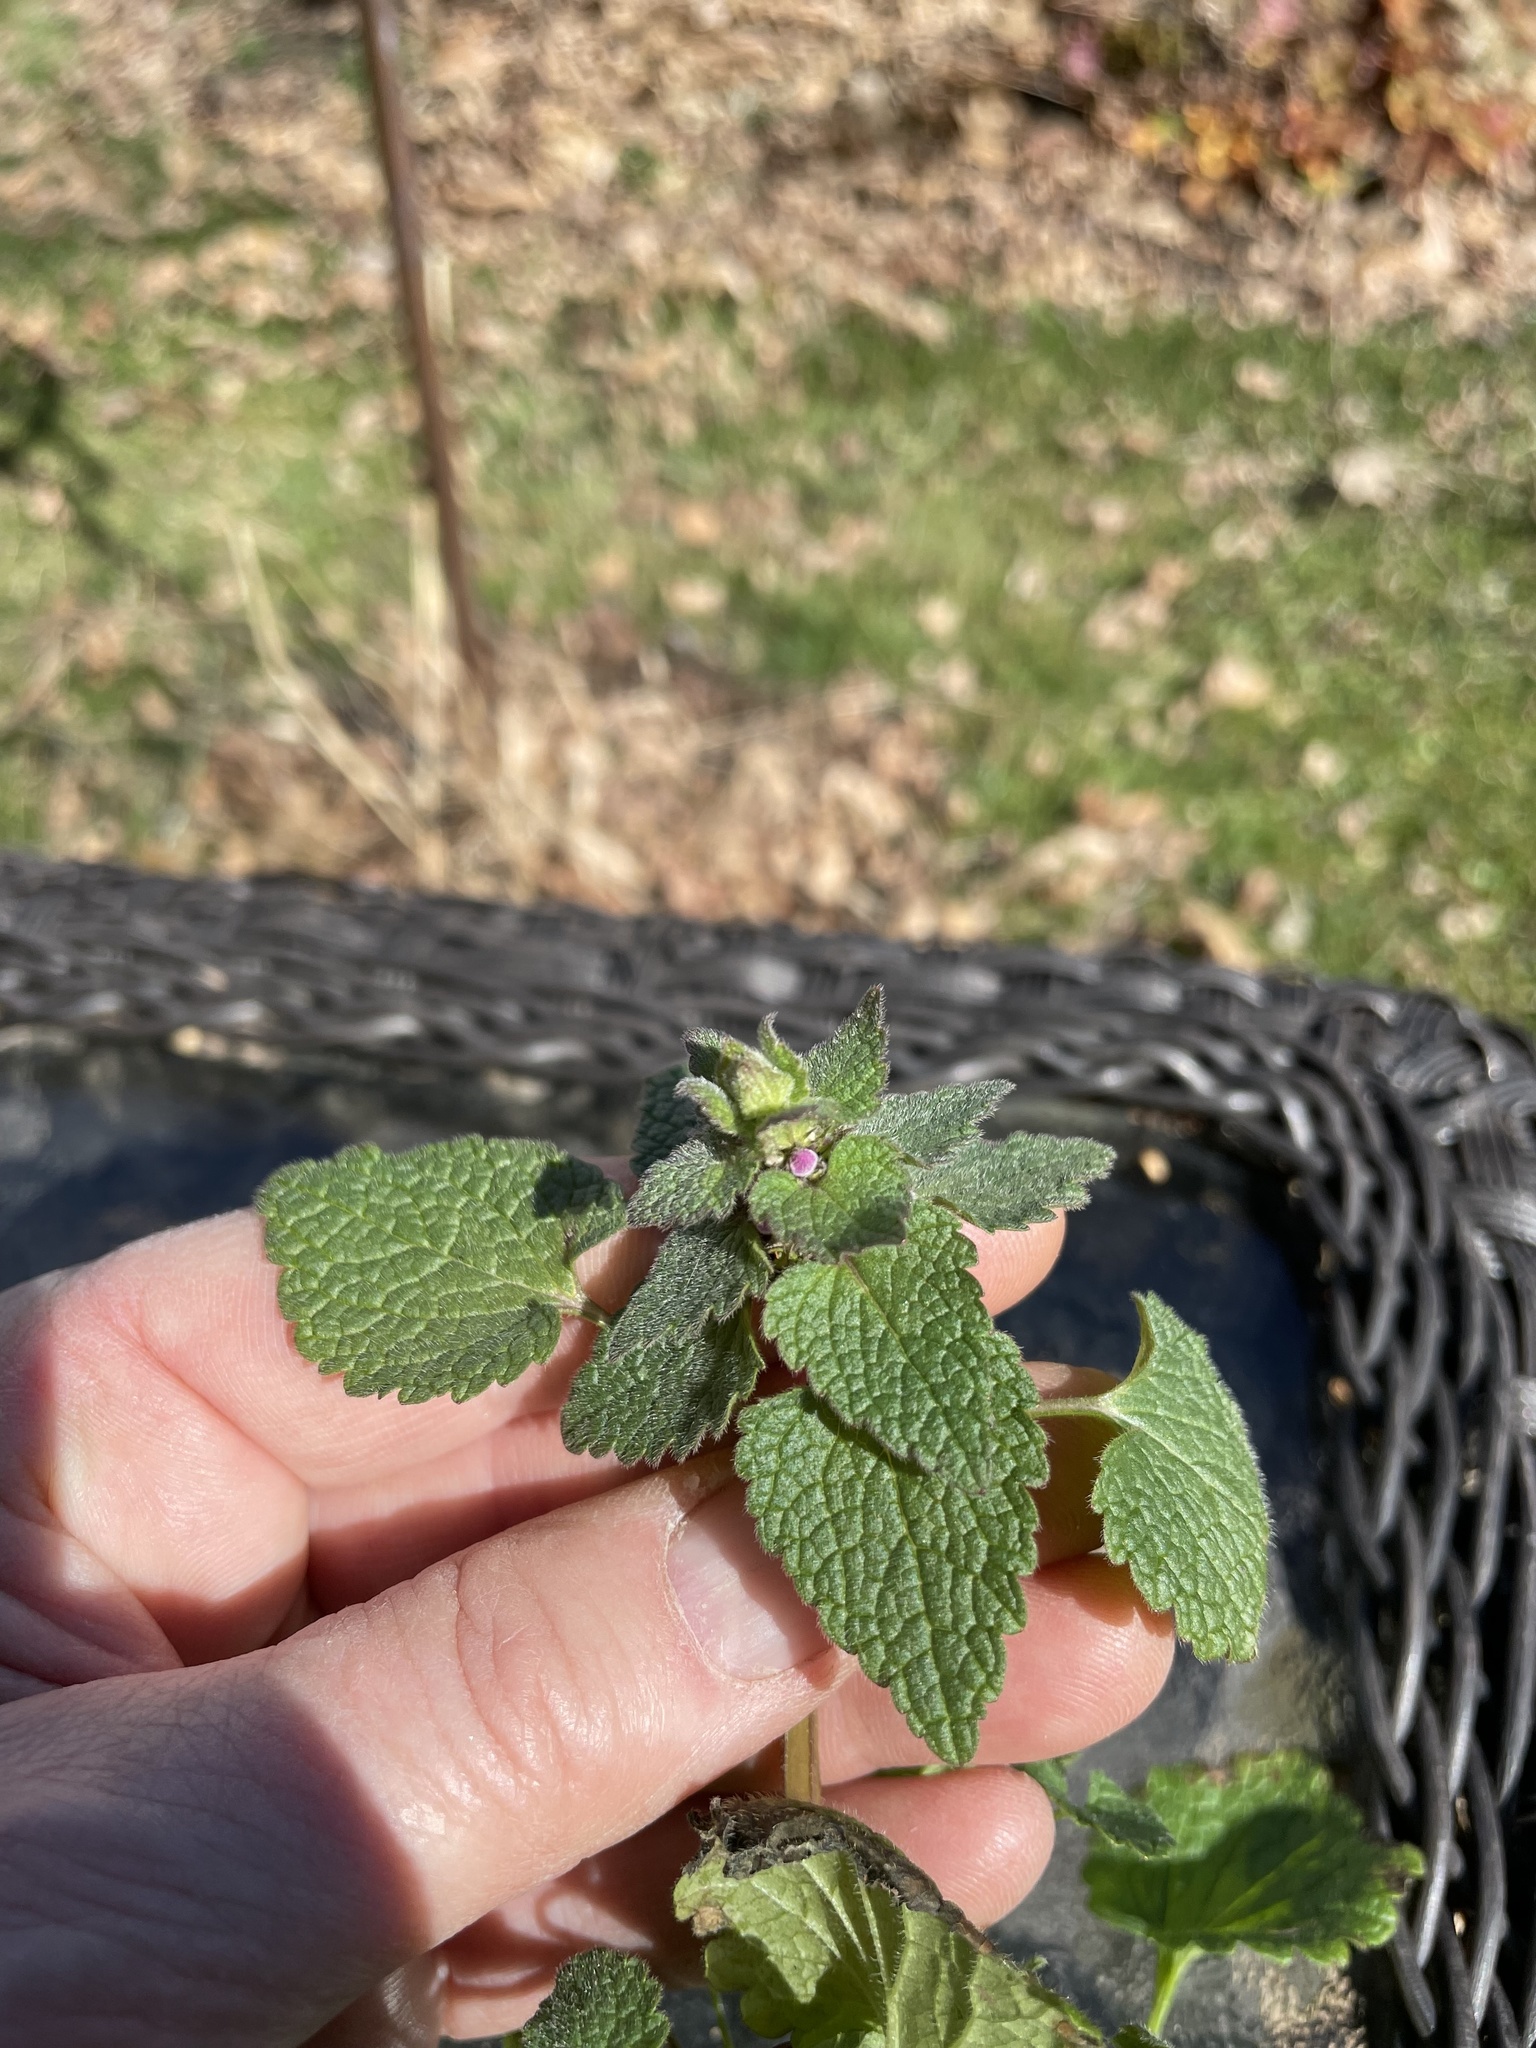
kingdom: Plantae
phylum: Tracheophyta
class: Magnoliopsida
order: Lamiales
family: Lamiaceae
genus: Lamium
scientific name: Lamium purpureum
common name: Red dead-nettle
